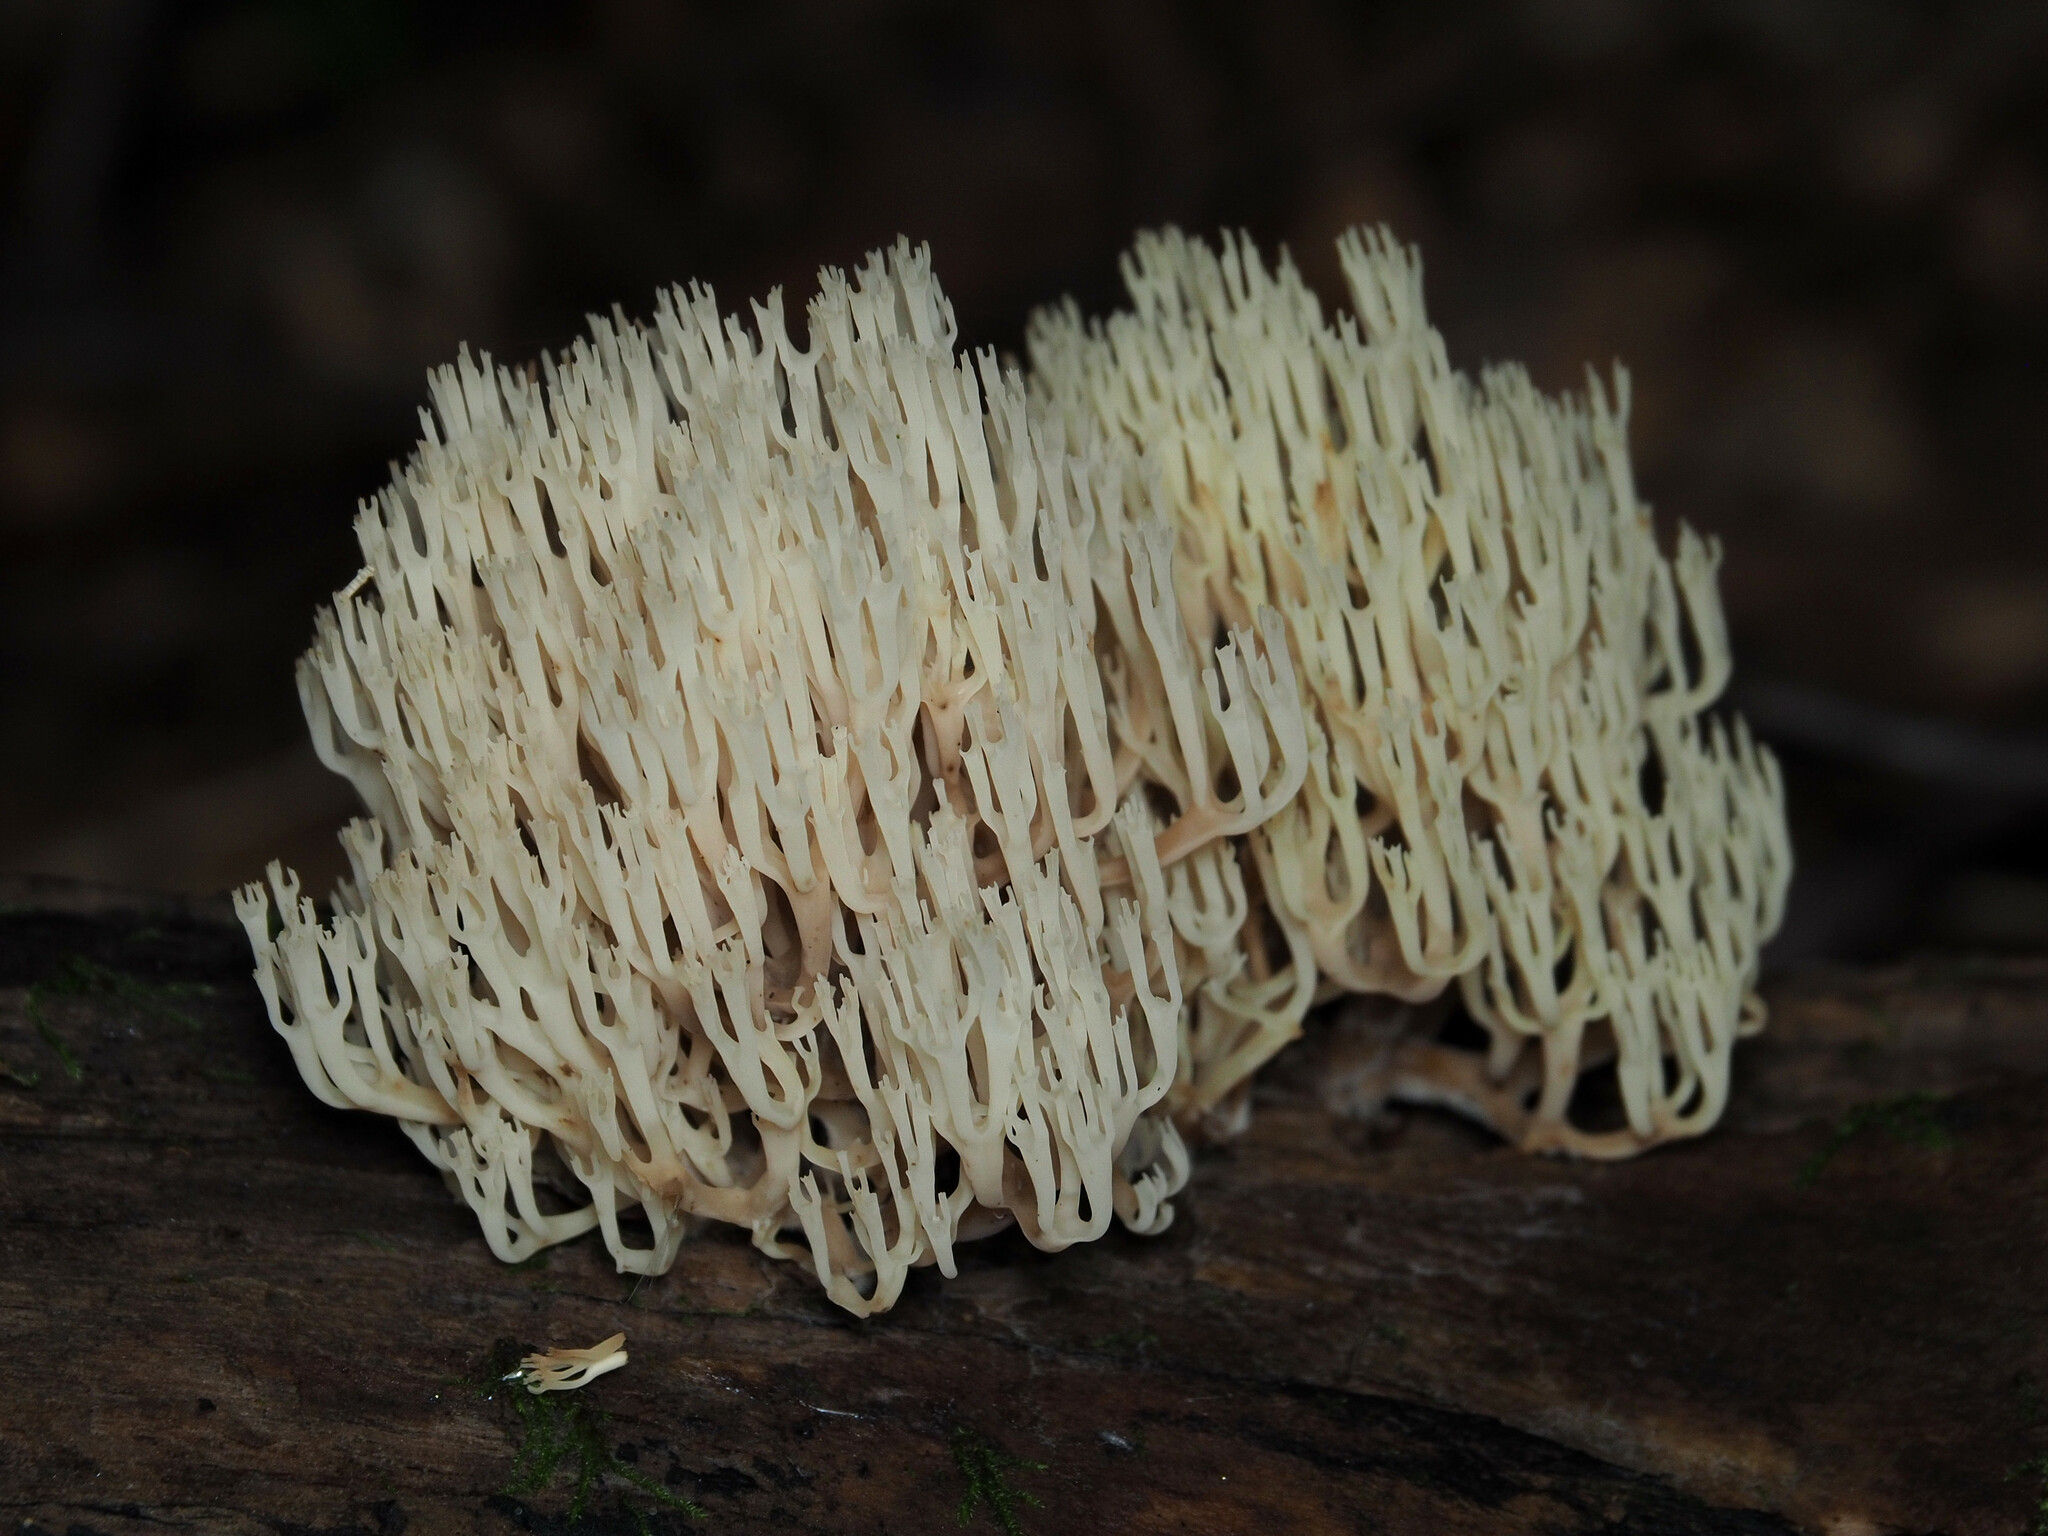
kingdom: Fungi
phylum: Basidiomycota
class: Agaricomycetes
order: Russulales
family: Auriscalpiaceae
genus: Artomyces
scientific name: Artomyces pyxidatus
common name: Crown-tipped coral fungus
